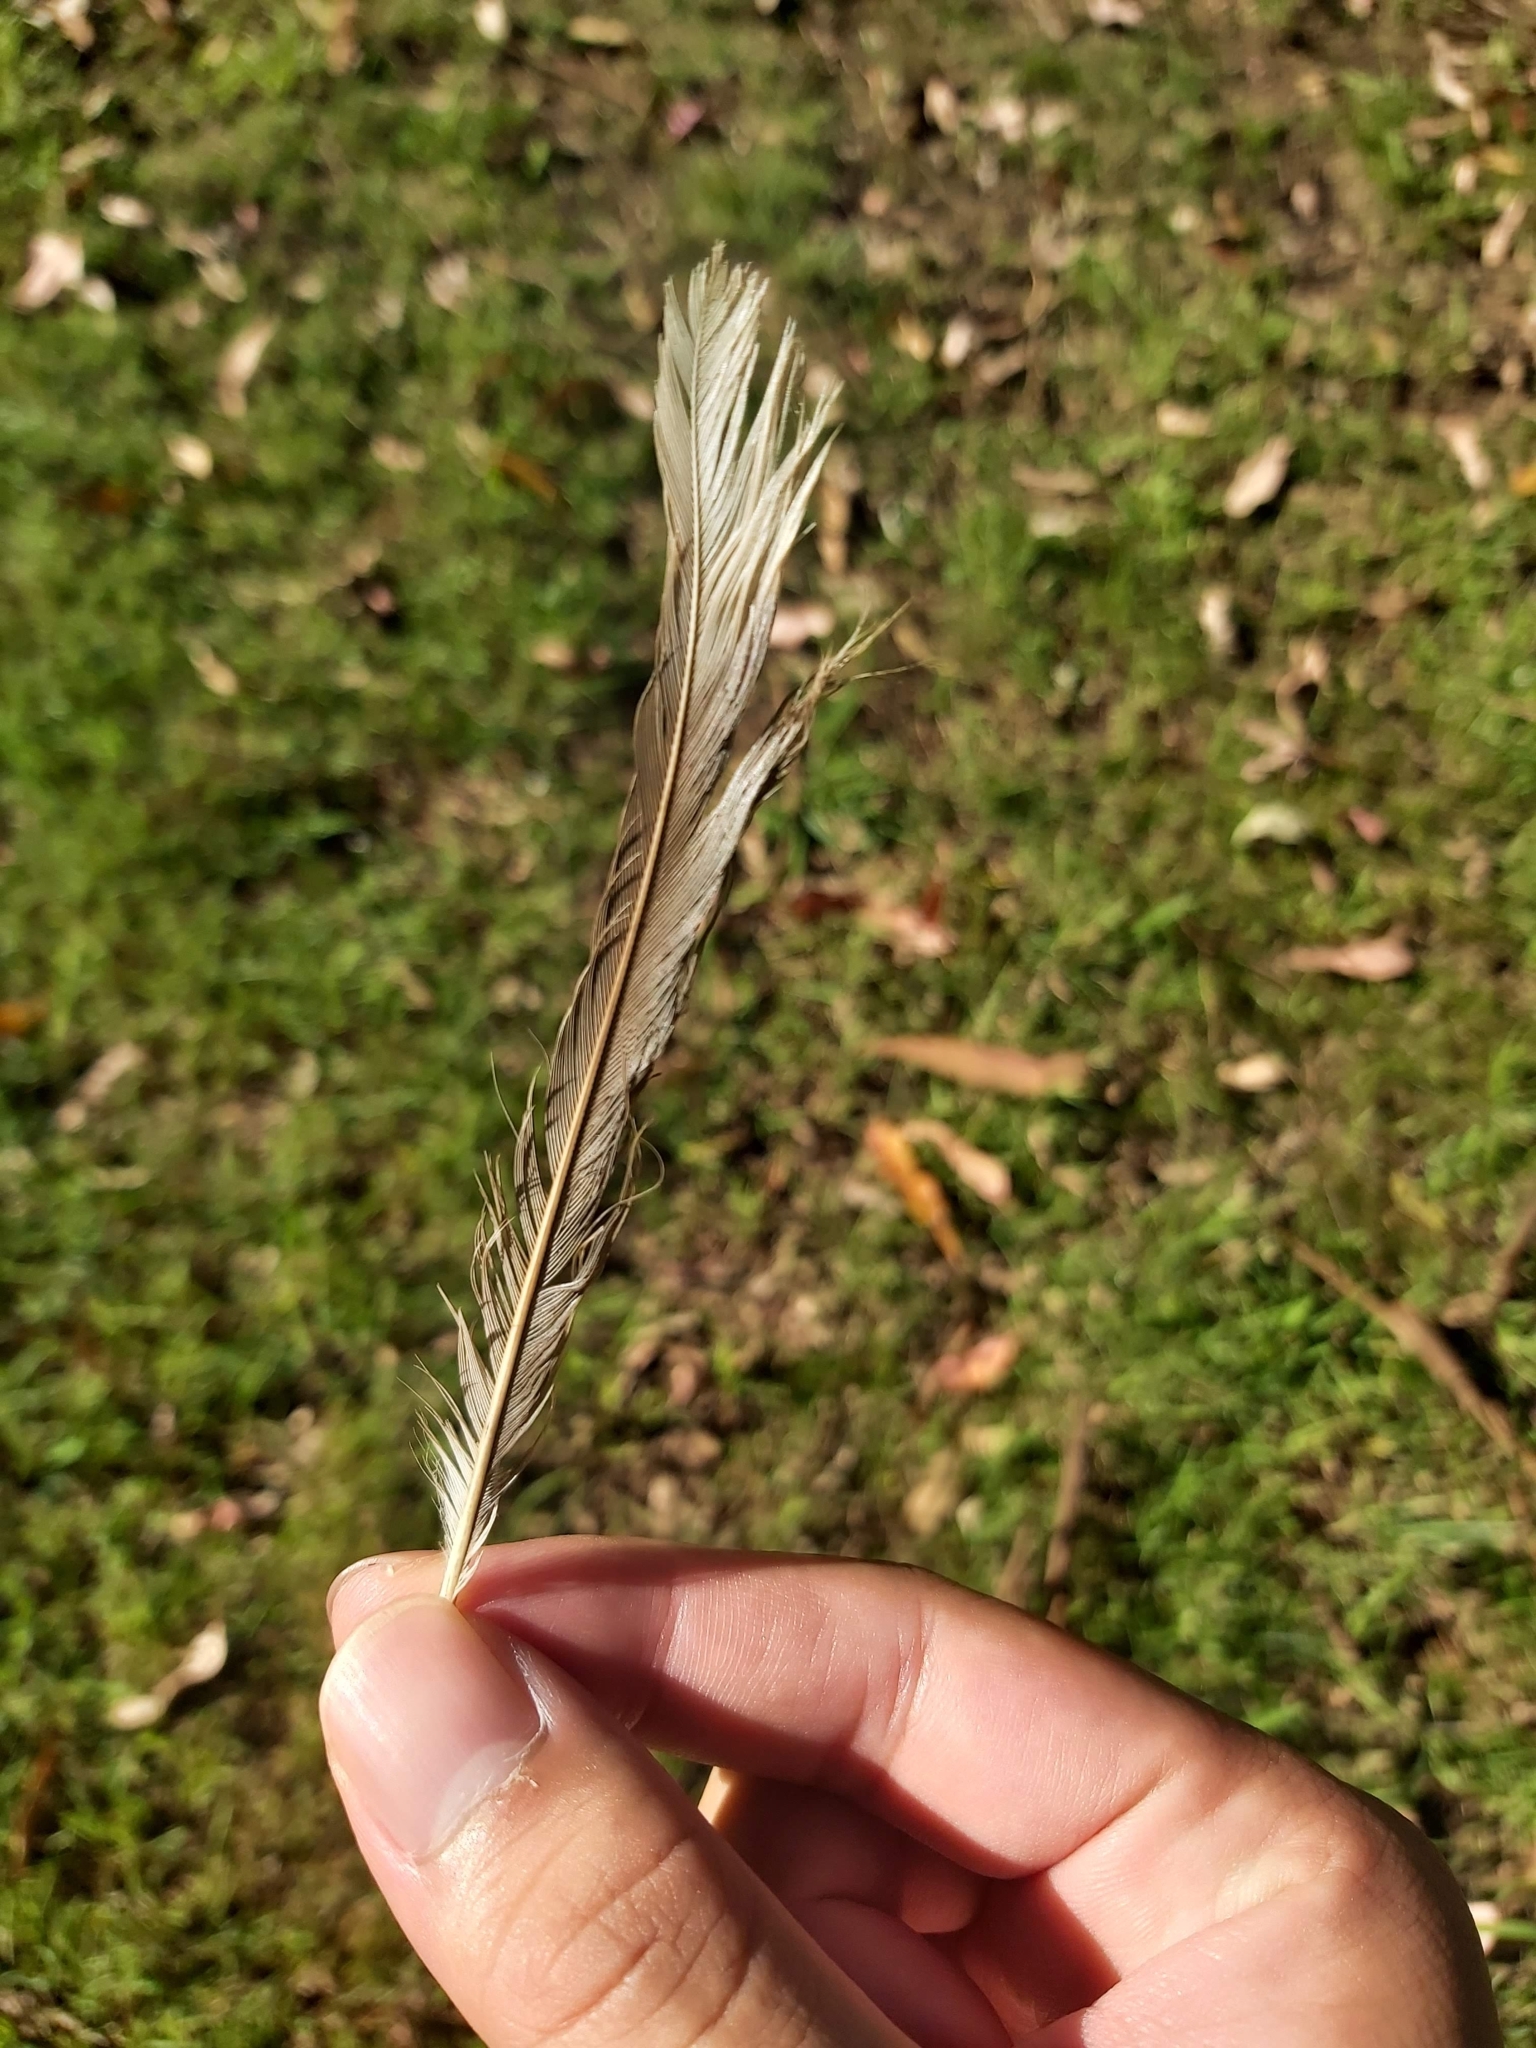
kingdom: Animalia
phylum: Chordata
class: Aves
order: Passeriformes
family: Meliphagidae
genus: Manorina
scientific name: Manorina melanocephala
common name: Noisy miner
